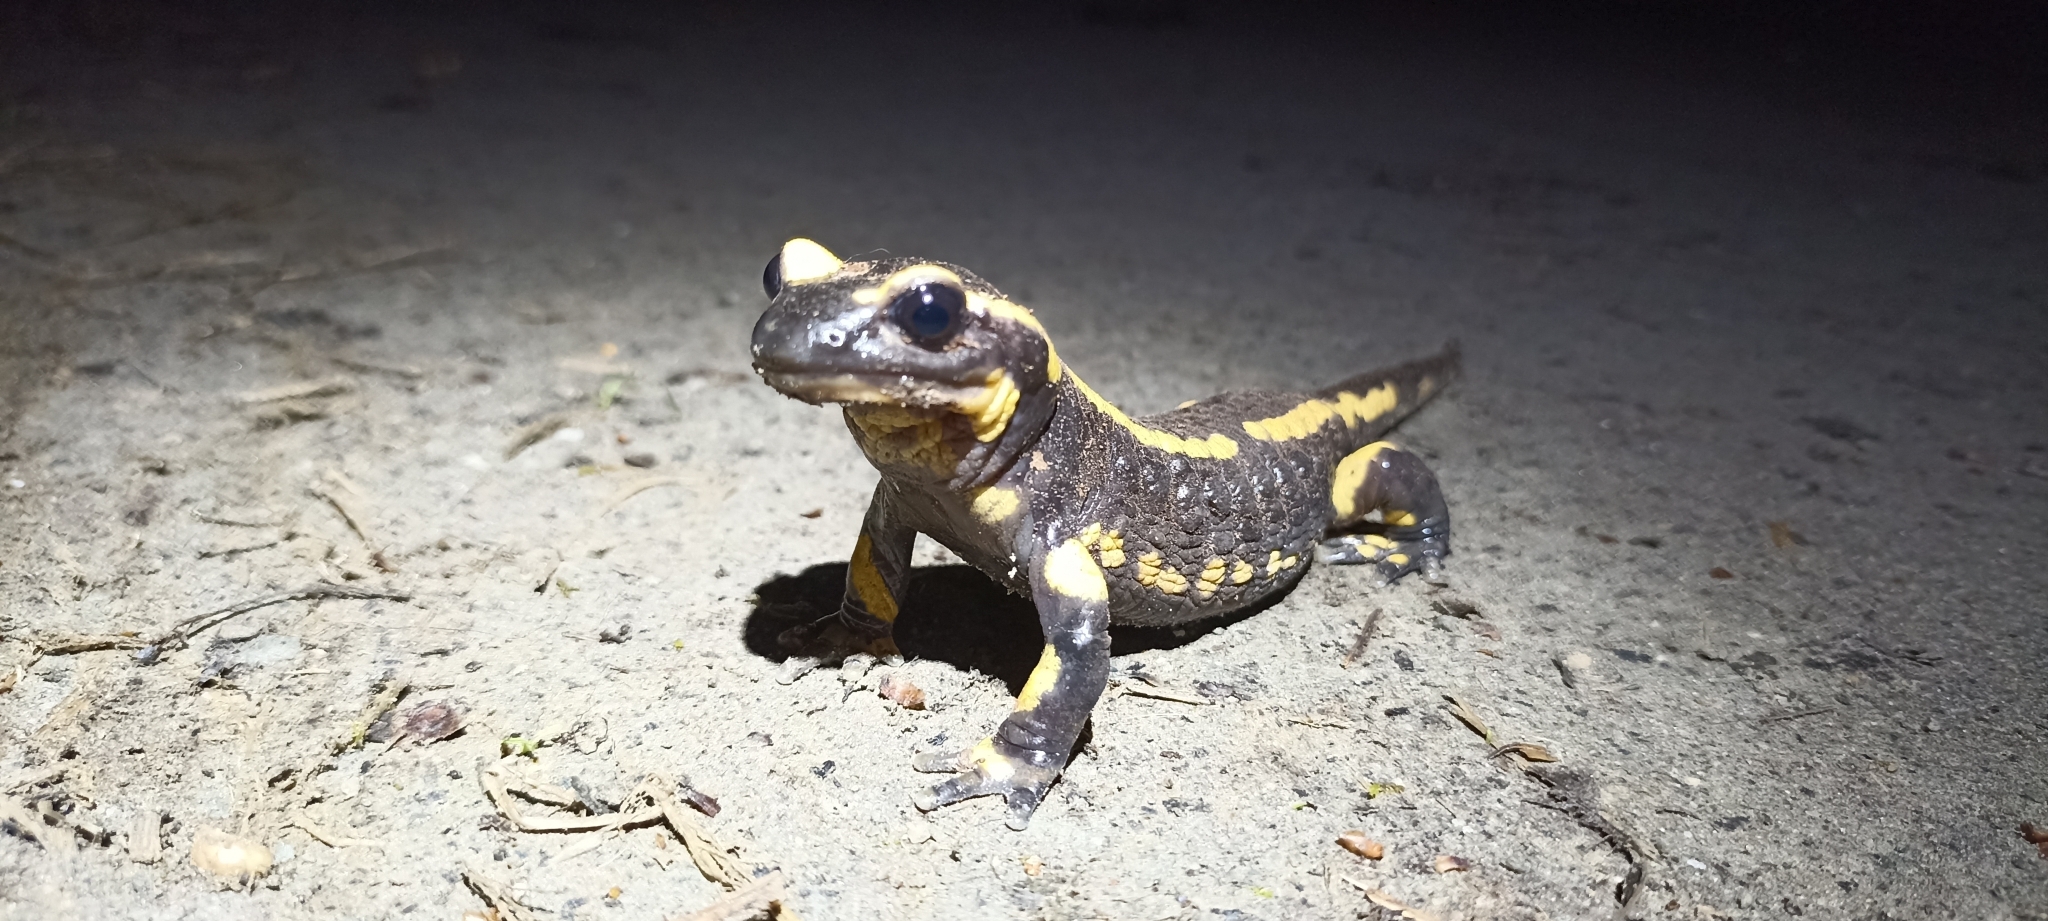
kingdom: Animalia
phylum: Chordata
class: Amphibia
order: Caudata
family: Salamandridae
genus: Salamandra
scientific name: Salamandra salamandra
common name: Fire salamander
